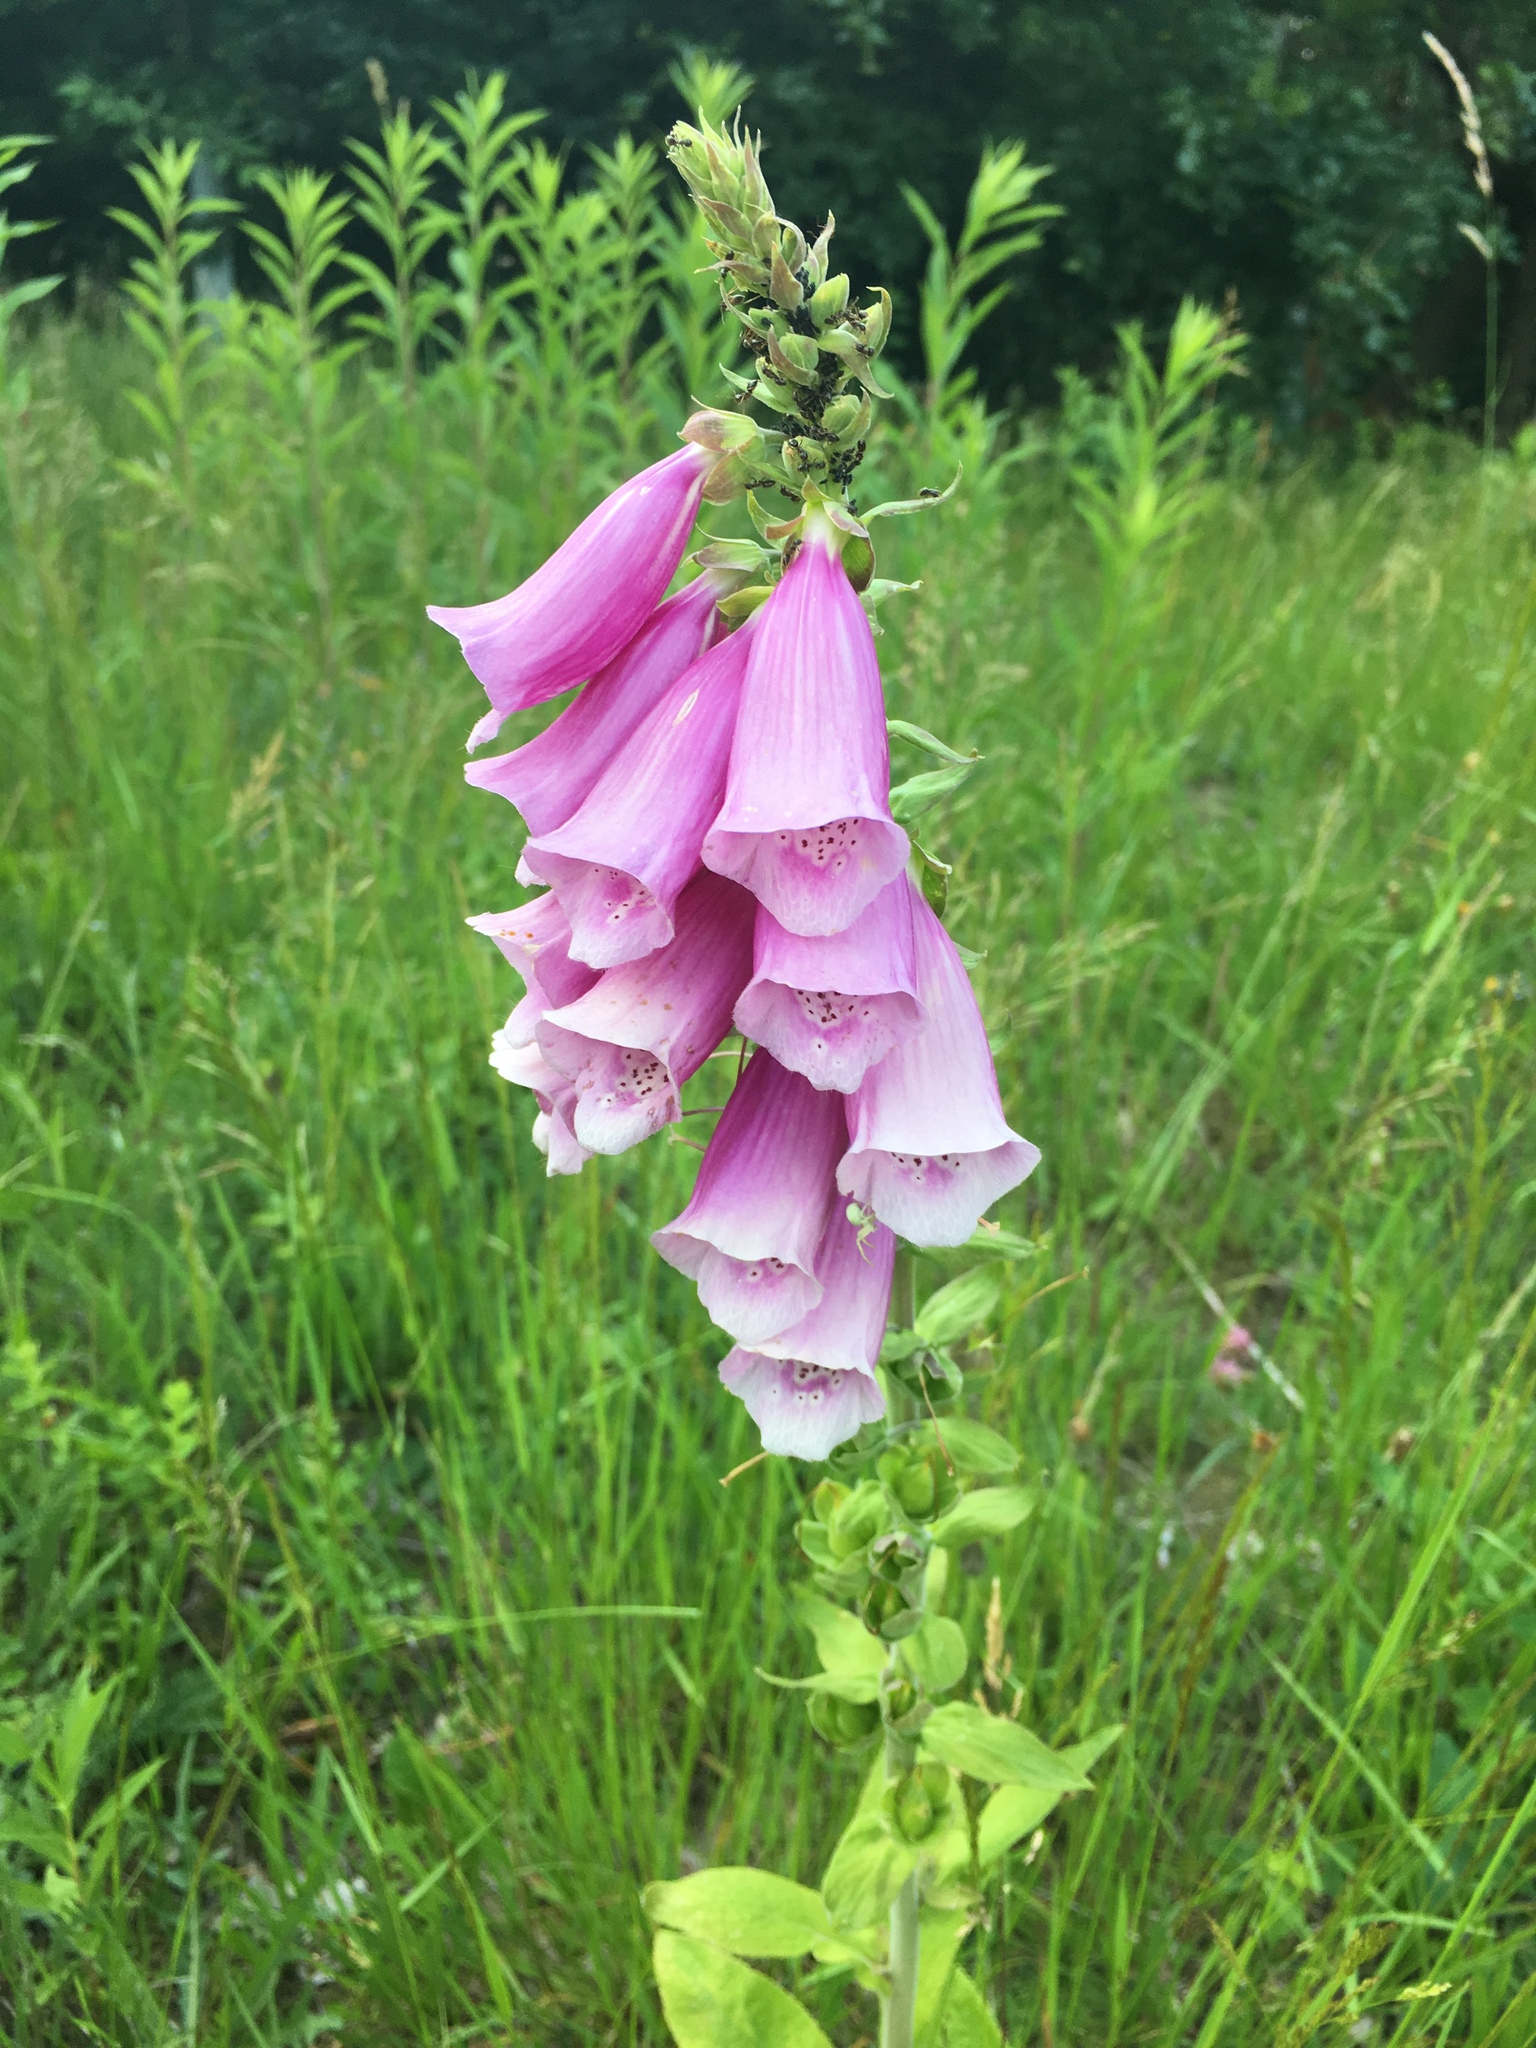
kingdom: Plantae
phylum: Tracheophyta
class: Magnoliopsida
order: Lamiales
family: Plantaginaceae
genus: Digitalis
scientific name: Digitalis purpurea
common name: Foxglove
